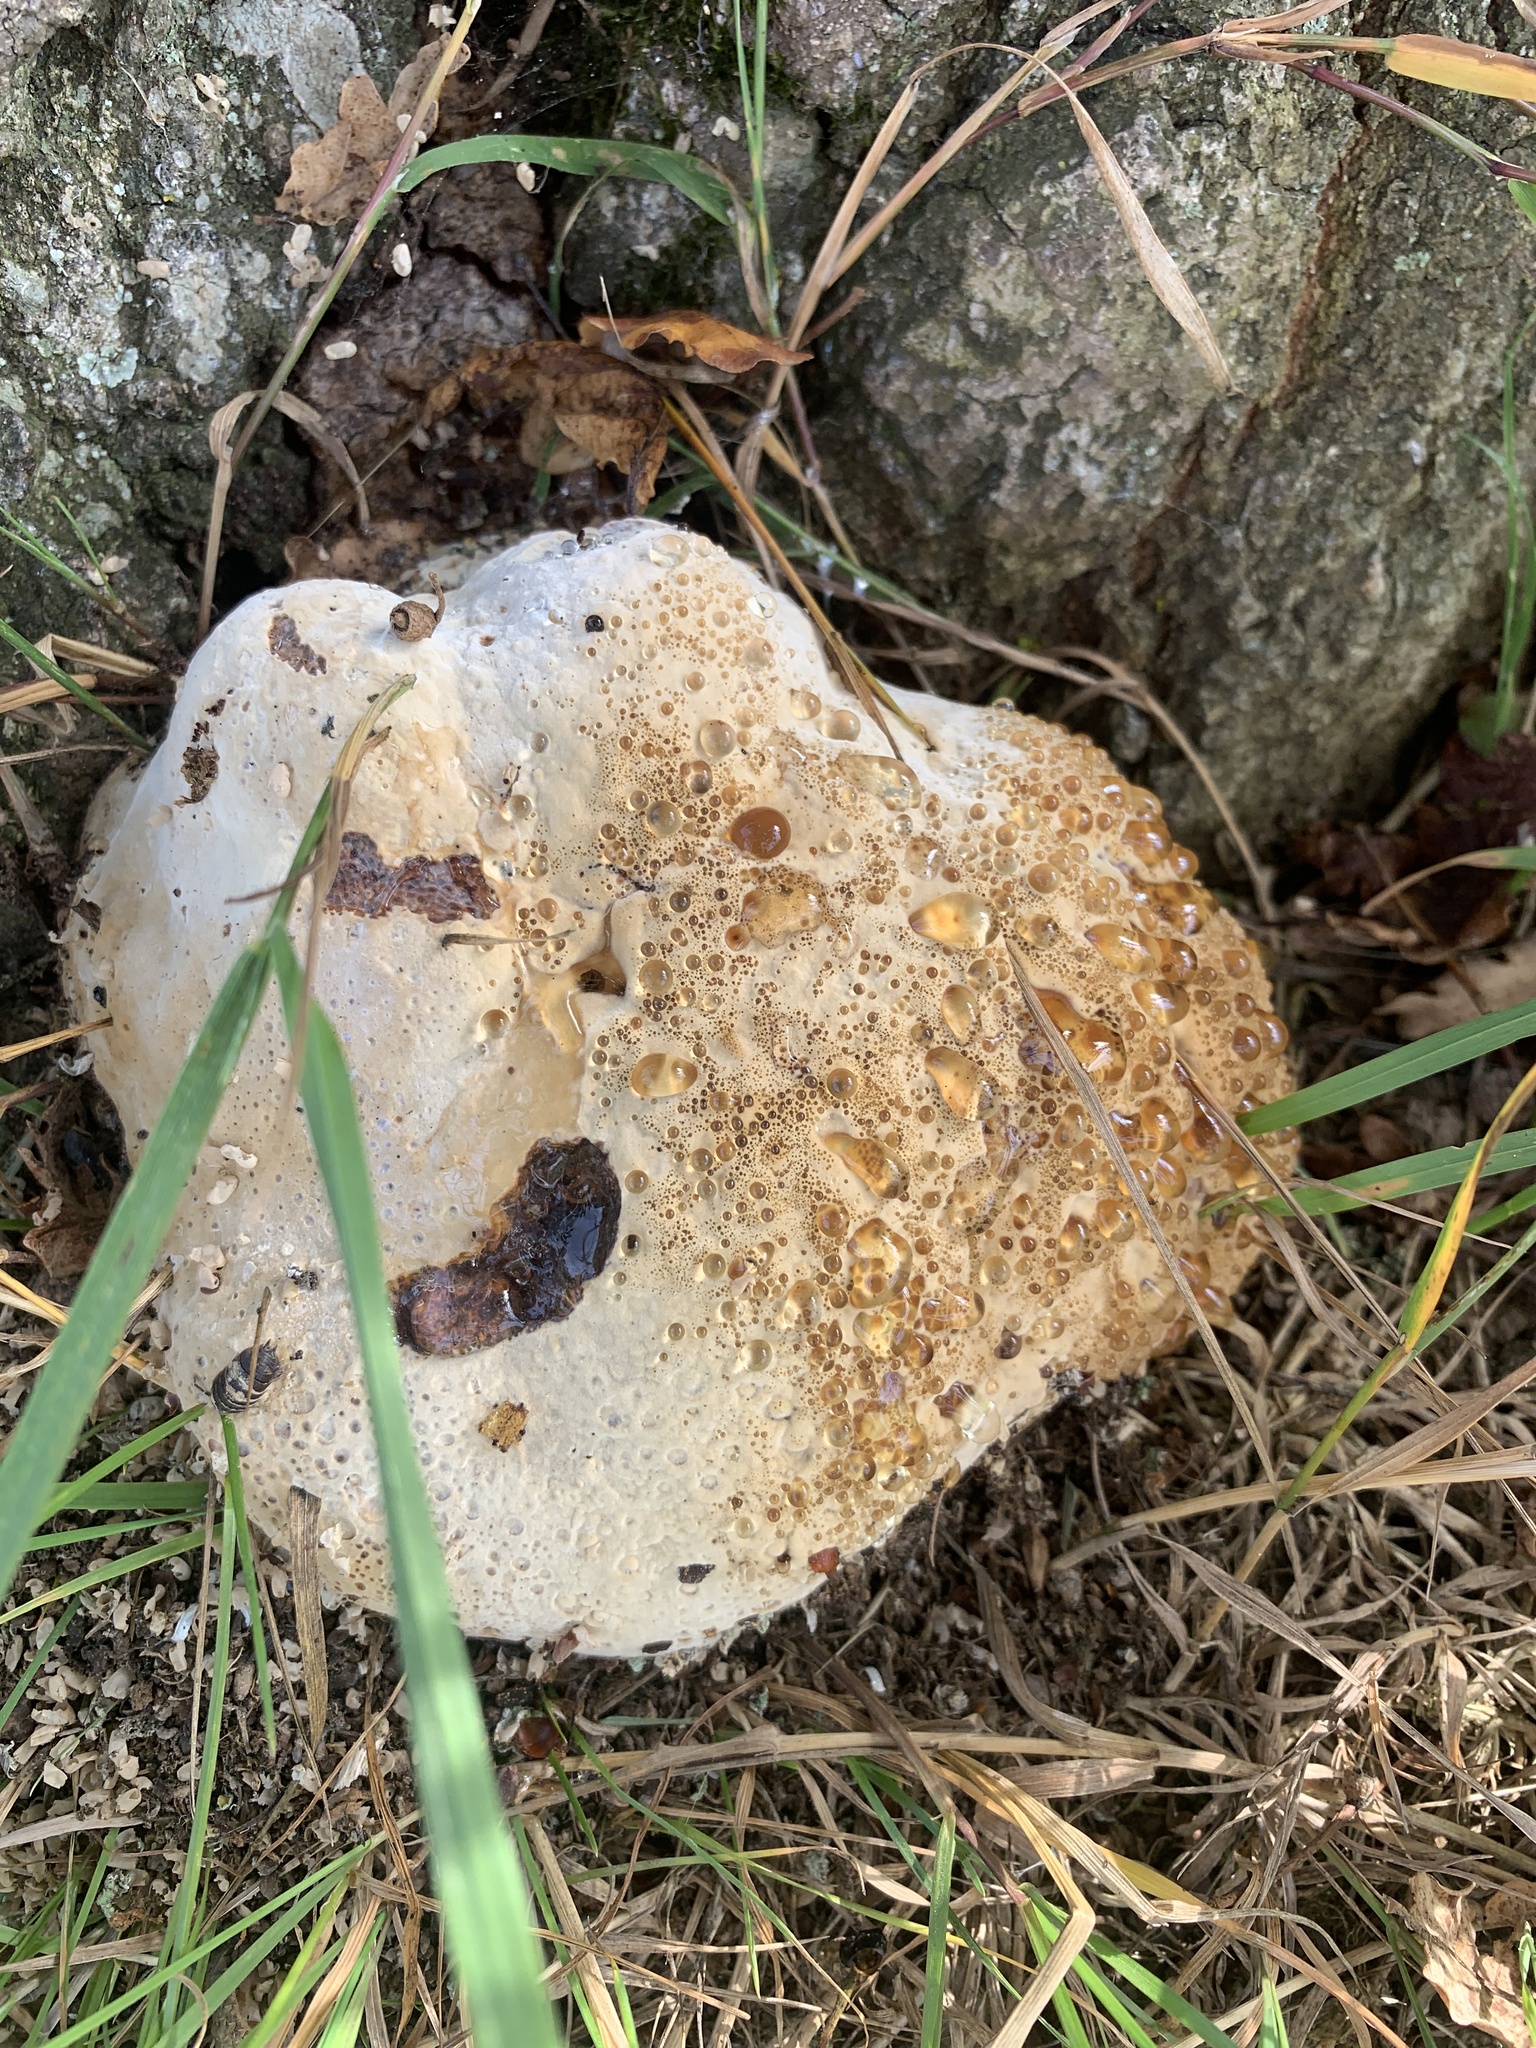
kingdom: Fungi
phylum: Basidiomycota
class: Agaricomycetes
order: Hymenochaetales
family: Hymenochaetaceae
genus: Pseudoinonotus
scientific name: Pseudoinonotus dryadeus
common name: Oak bracket
